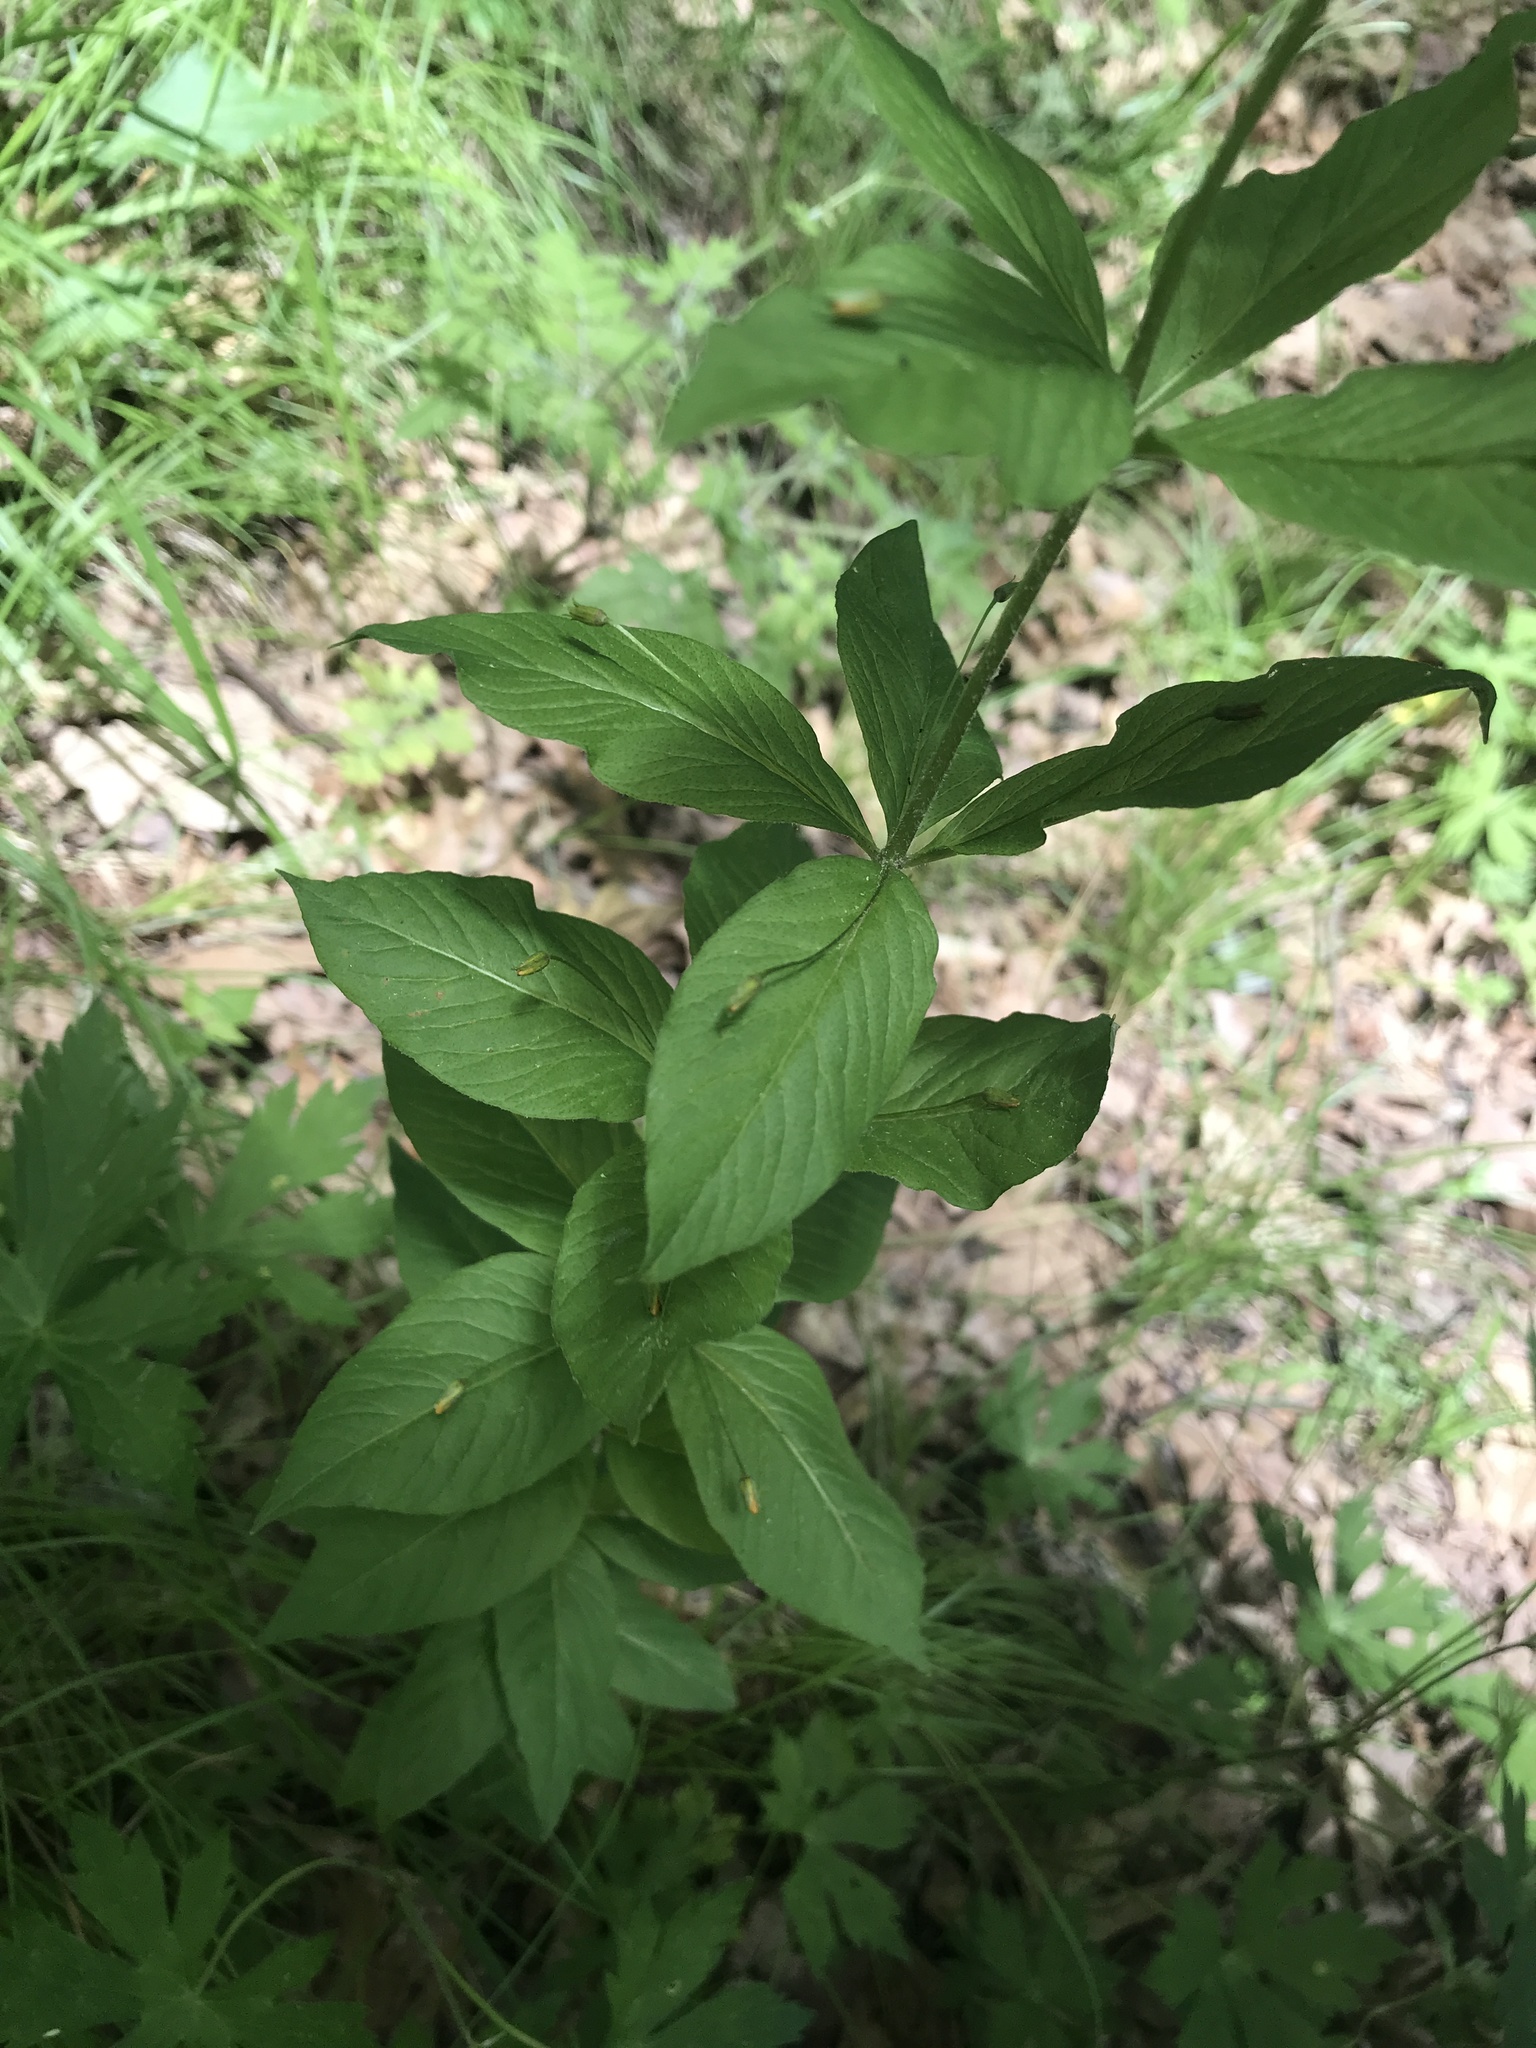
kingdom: Plantae
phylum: Tracheophyta
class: Magnoliopsida
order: Ericales
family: Primulaceae
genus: Lysimachia
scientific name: Lysimachia quadrifolia
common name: Whorled loosestrife
